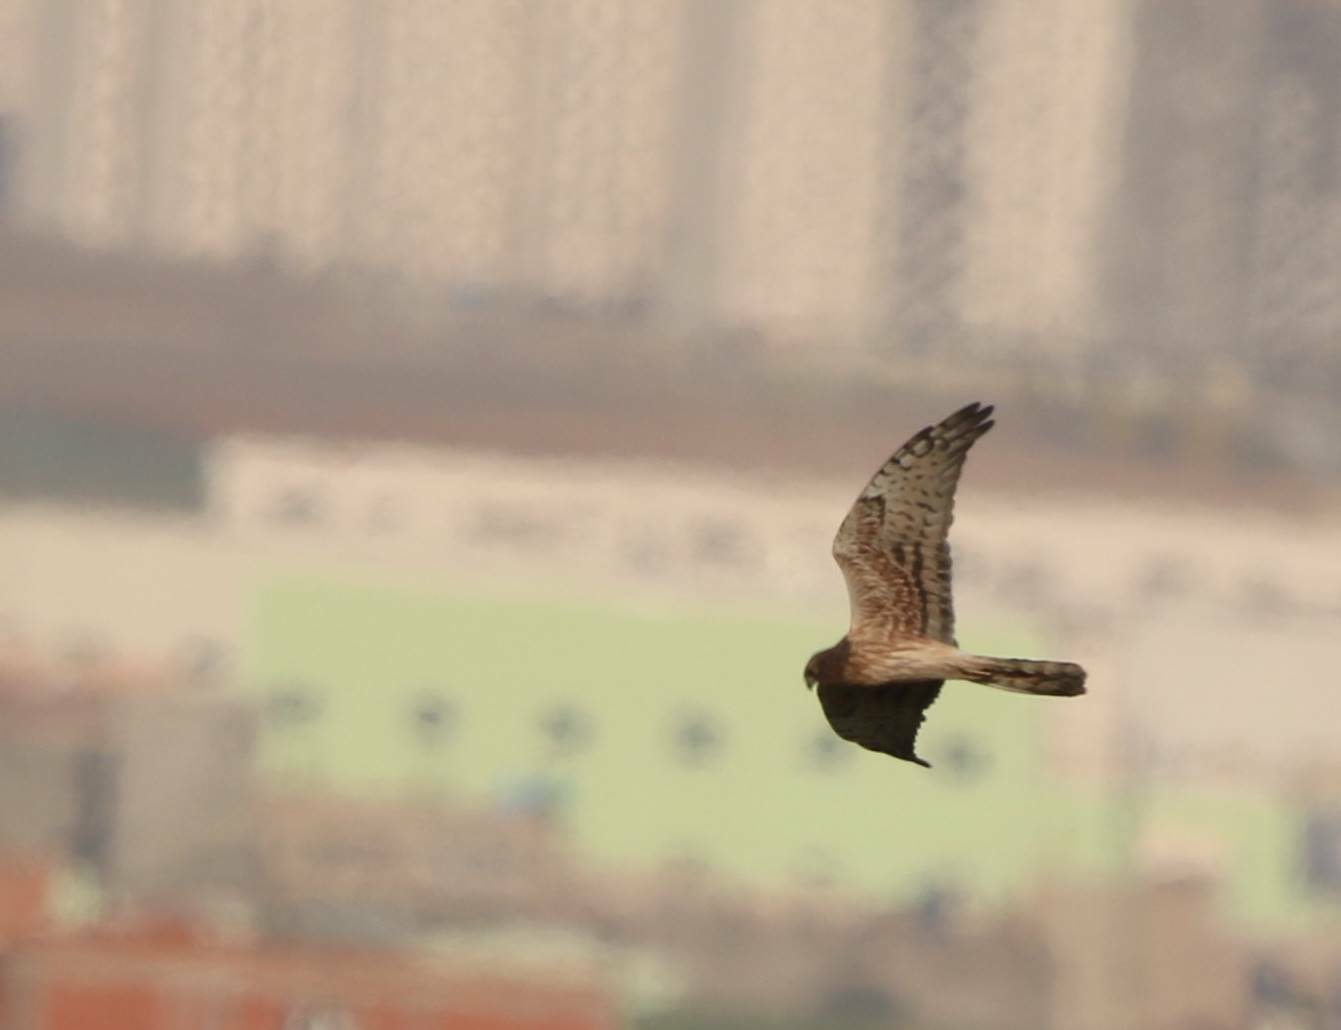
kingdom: Animalia
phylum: Chordata
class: Aves
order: Accipitriformes
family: Accipitridae
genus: Circus
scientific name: Circus pygargus
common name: Montagu's harrier
